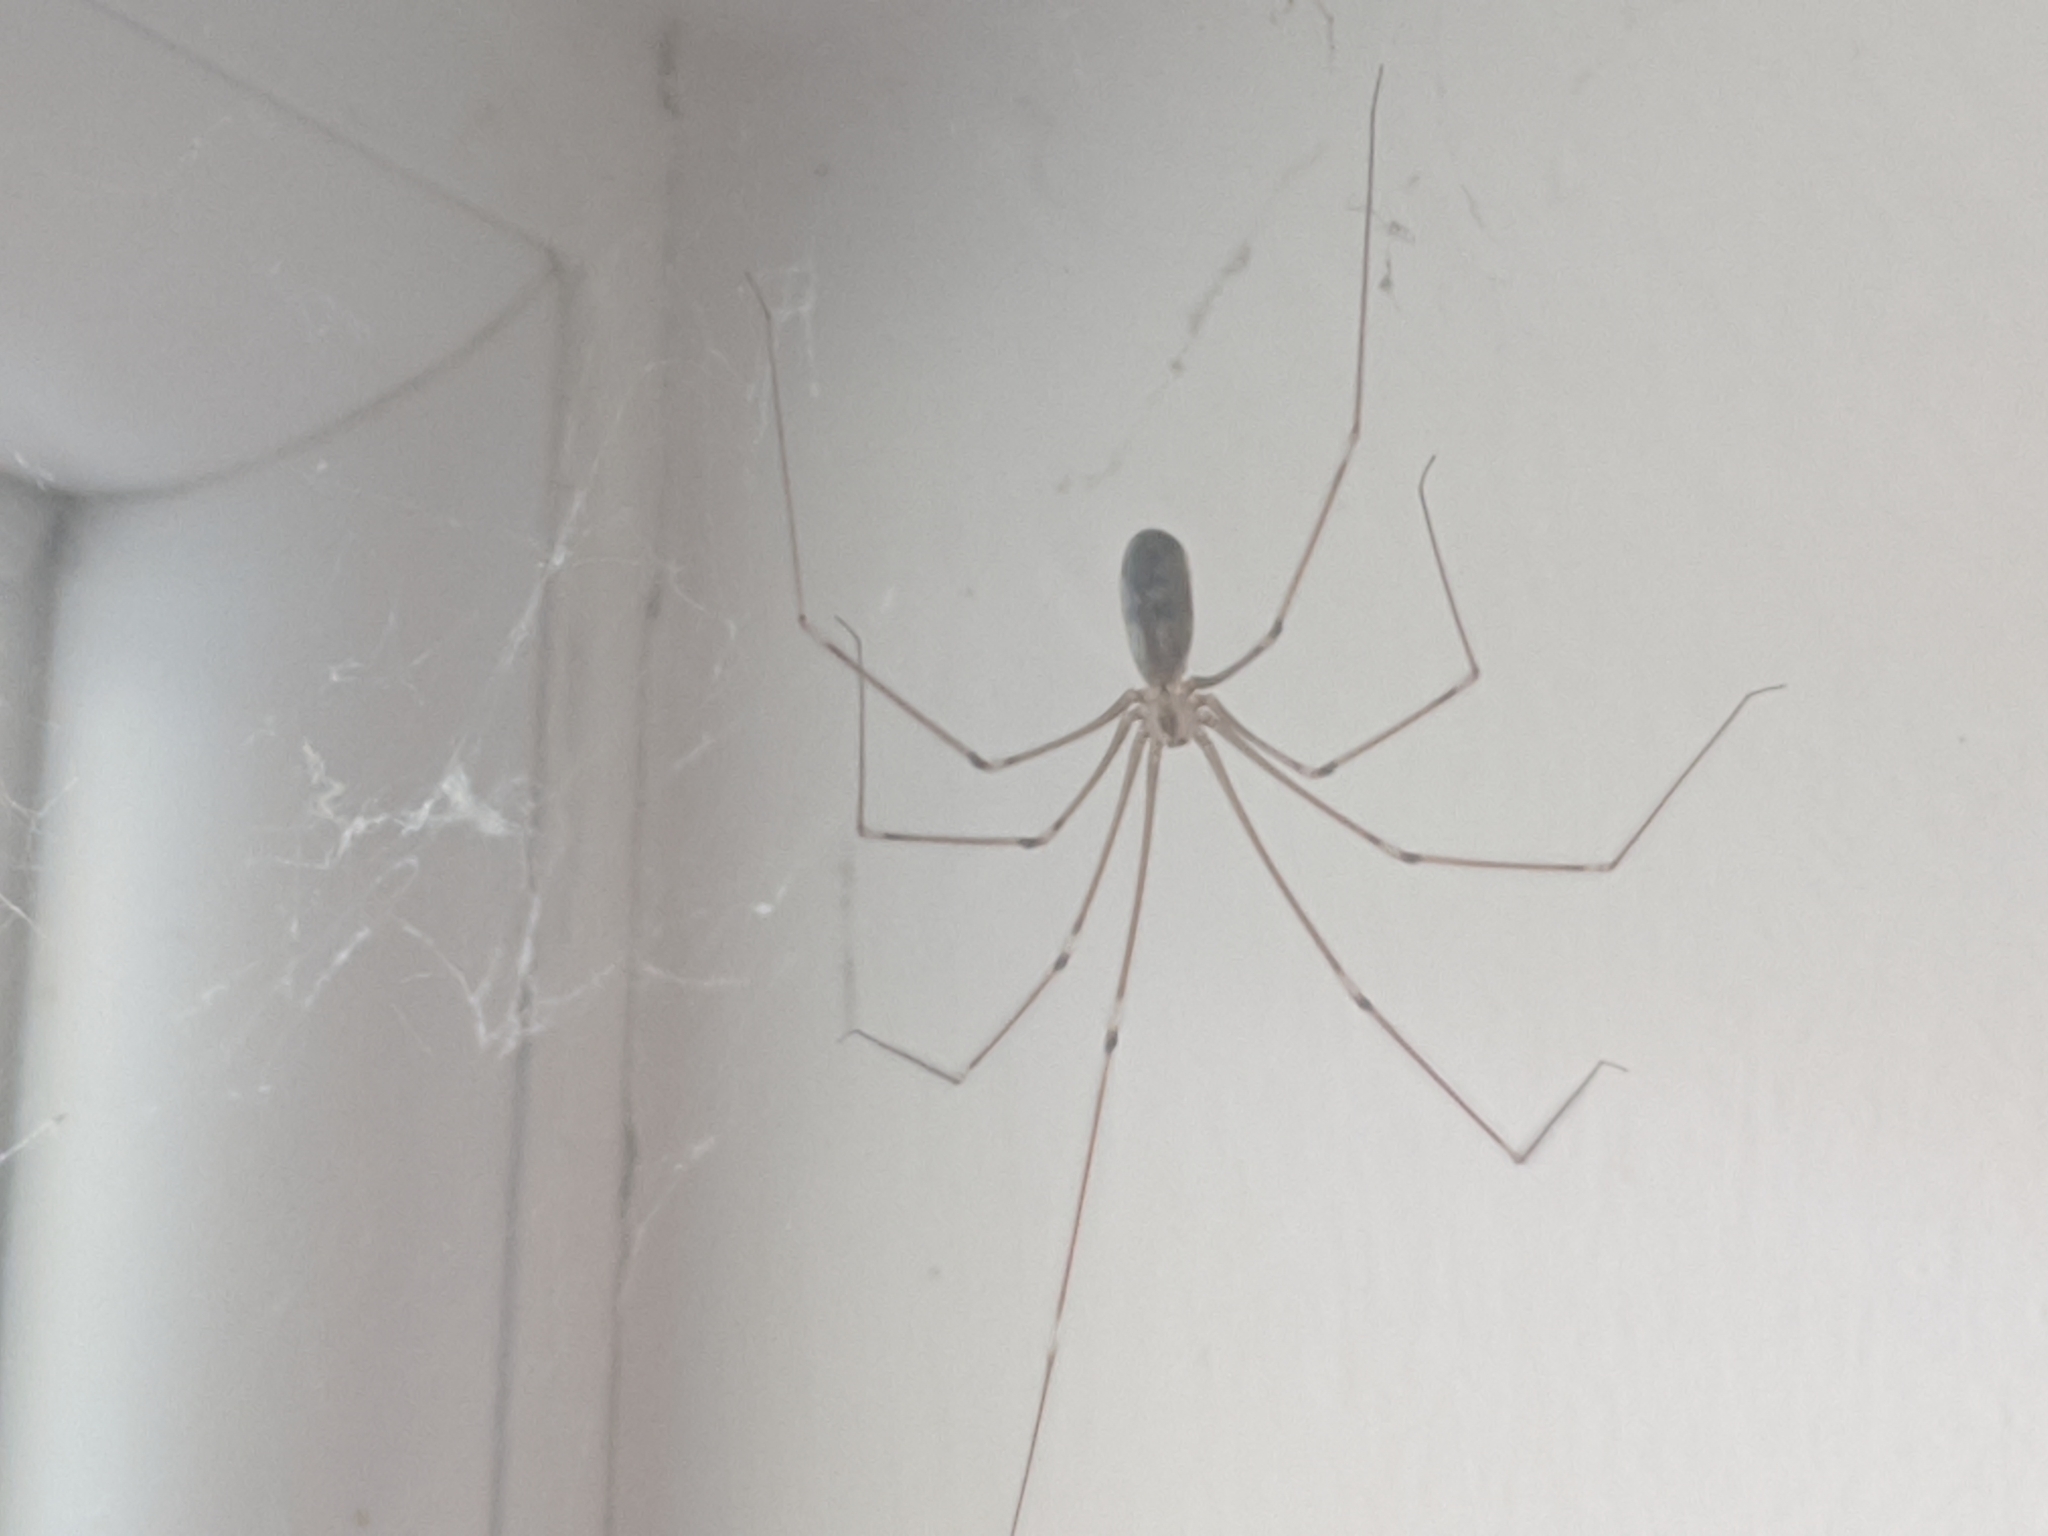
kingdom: Animalia
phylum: Arthropoda
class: Arachnida
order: Araneae
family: Pholcidae
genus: Pholcus
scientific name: Pholcus phalangioides
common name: Longbodied cellar spider
